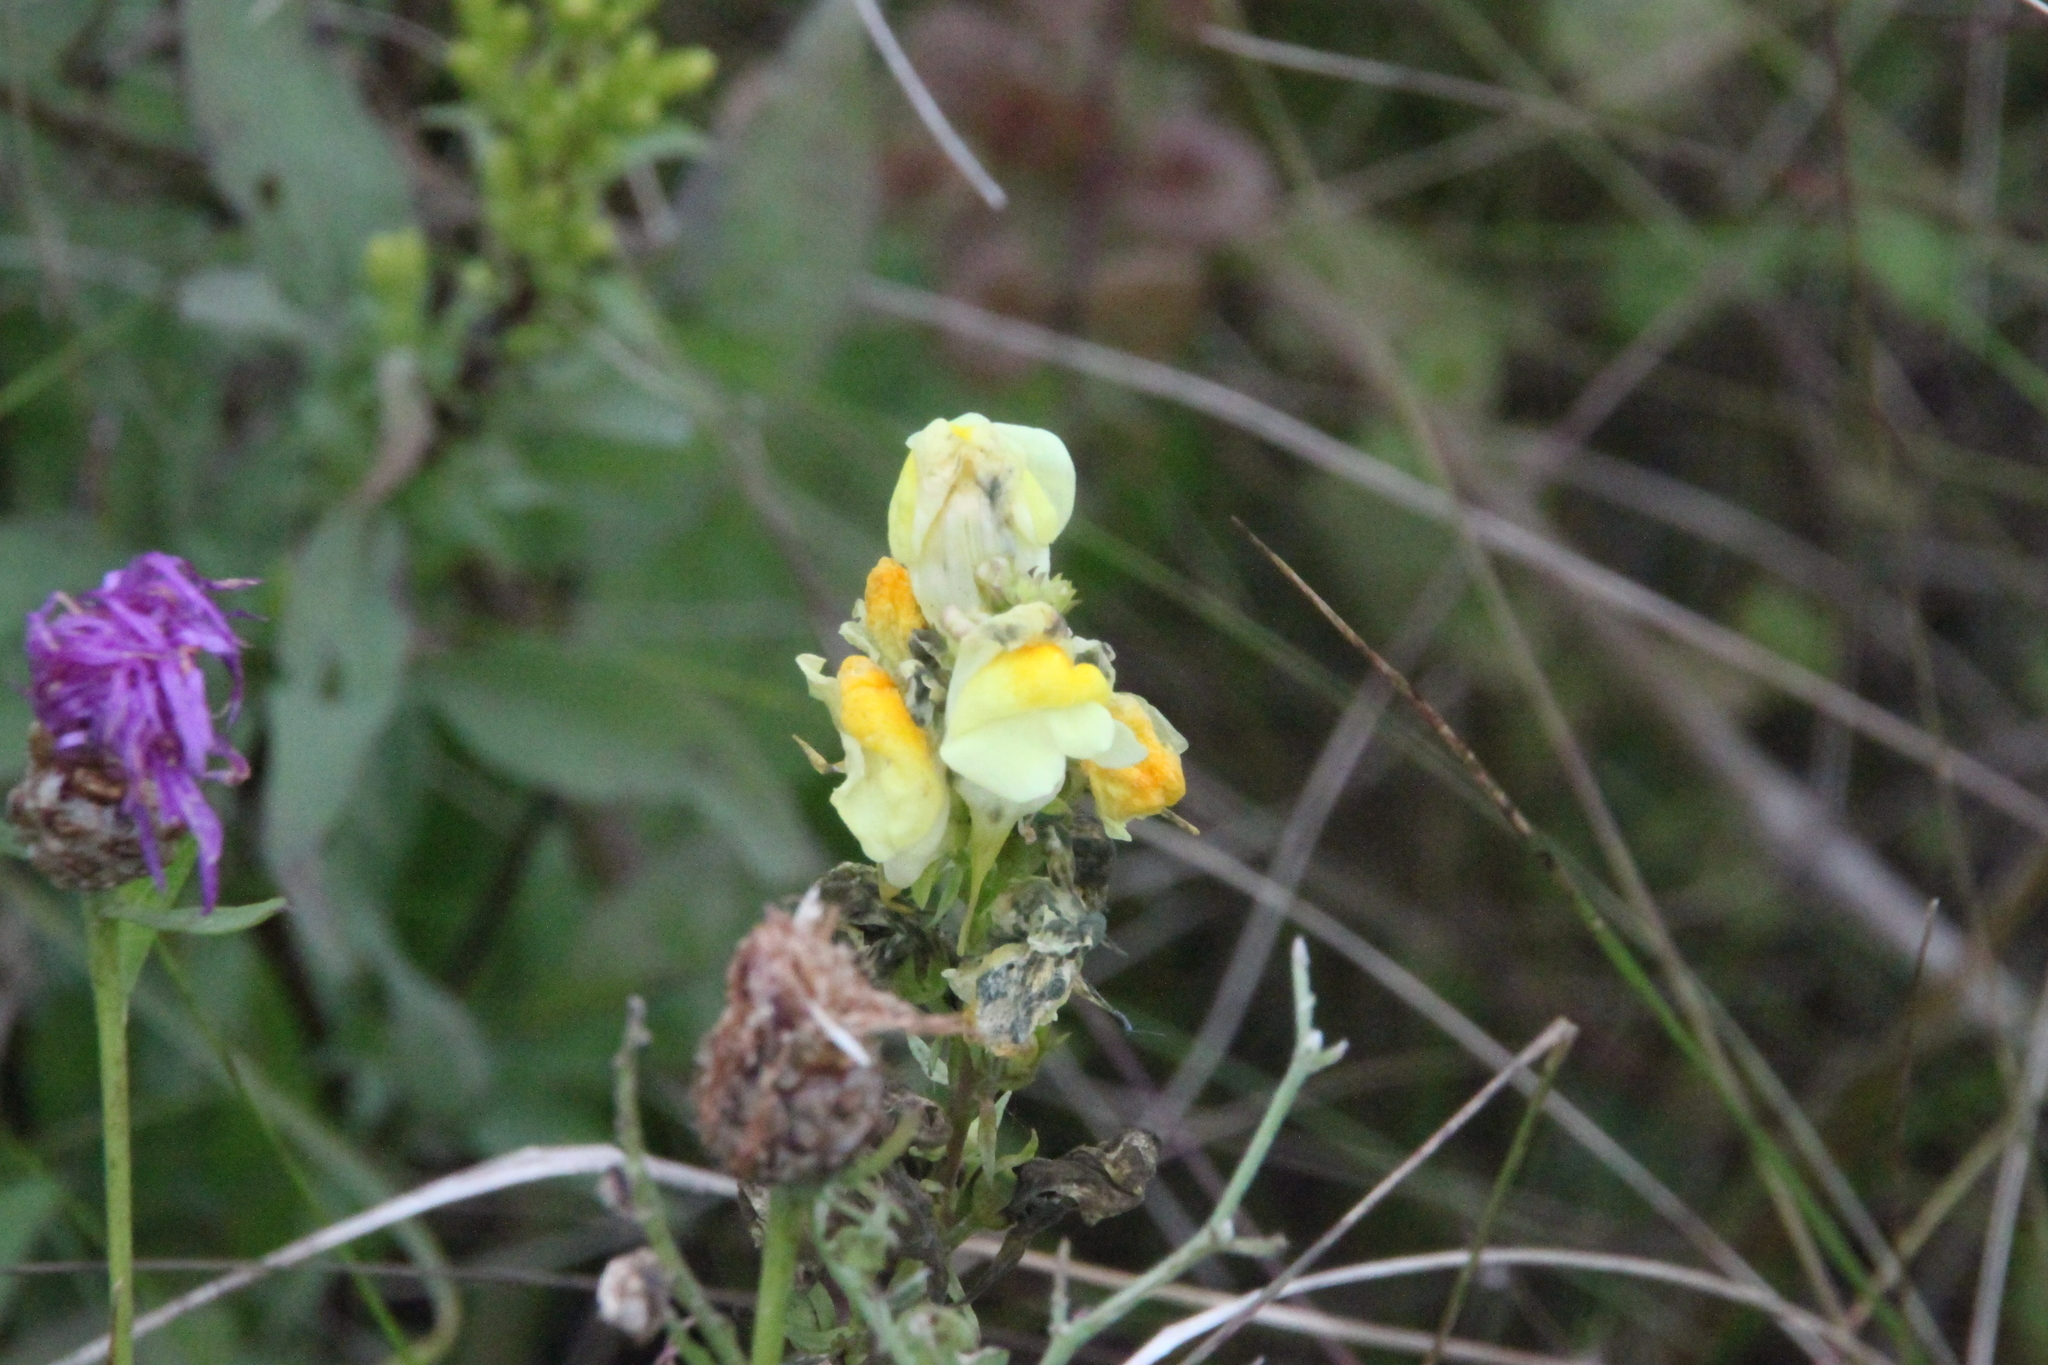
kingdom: Plantae
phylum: Tracheophyta
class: Magnoliopsida
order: Lamiales
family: Plantaginaceae
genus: Linaria
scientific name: Linaria vulgaris
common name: Butter and eggs
